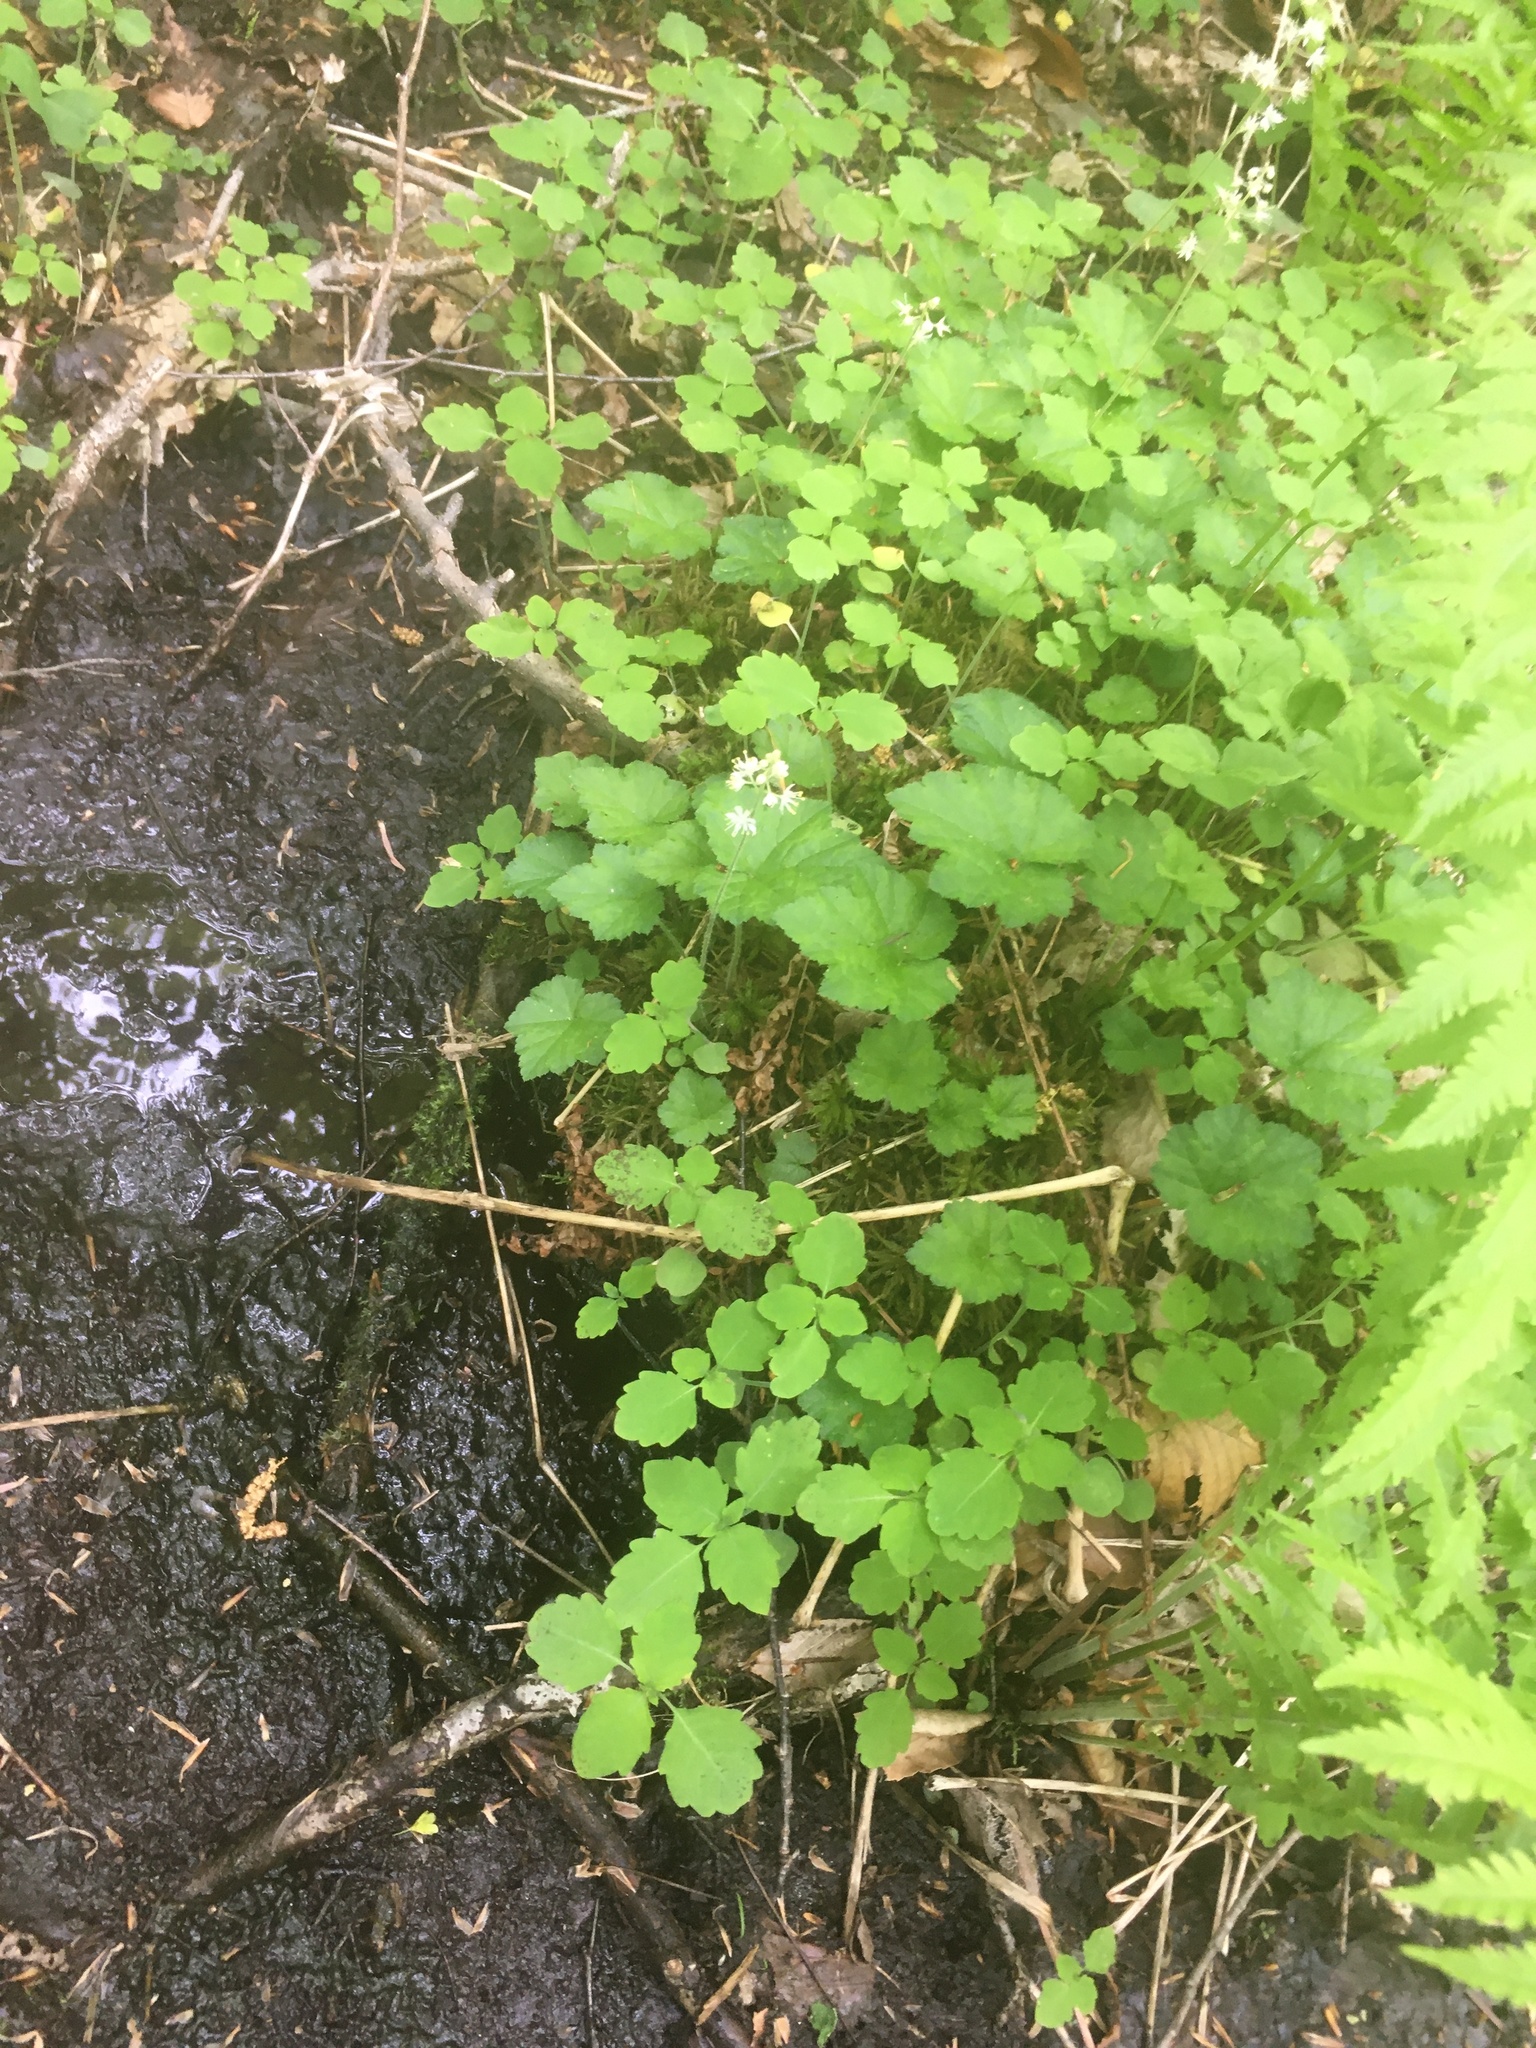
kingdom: Plantae
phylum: Tracheophyta
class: Magnoliopsida
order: Saxifragales
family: Saxifragaceae
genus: Tiarella
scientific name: Tiarella stolonifera
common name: Stoloniferous foamflower
